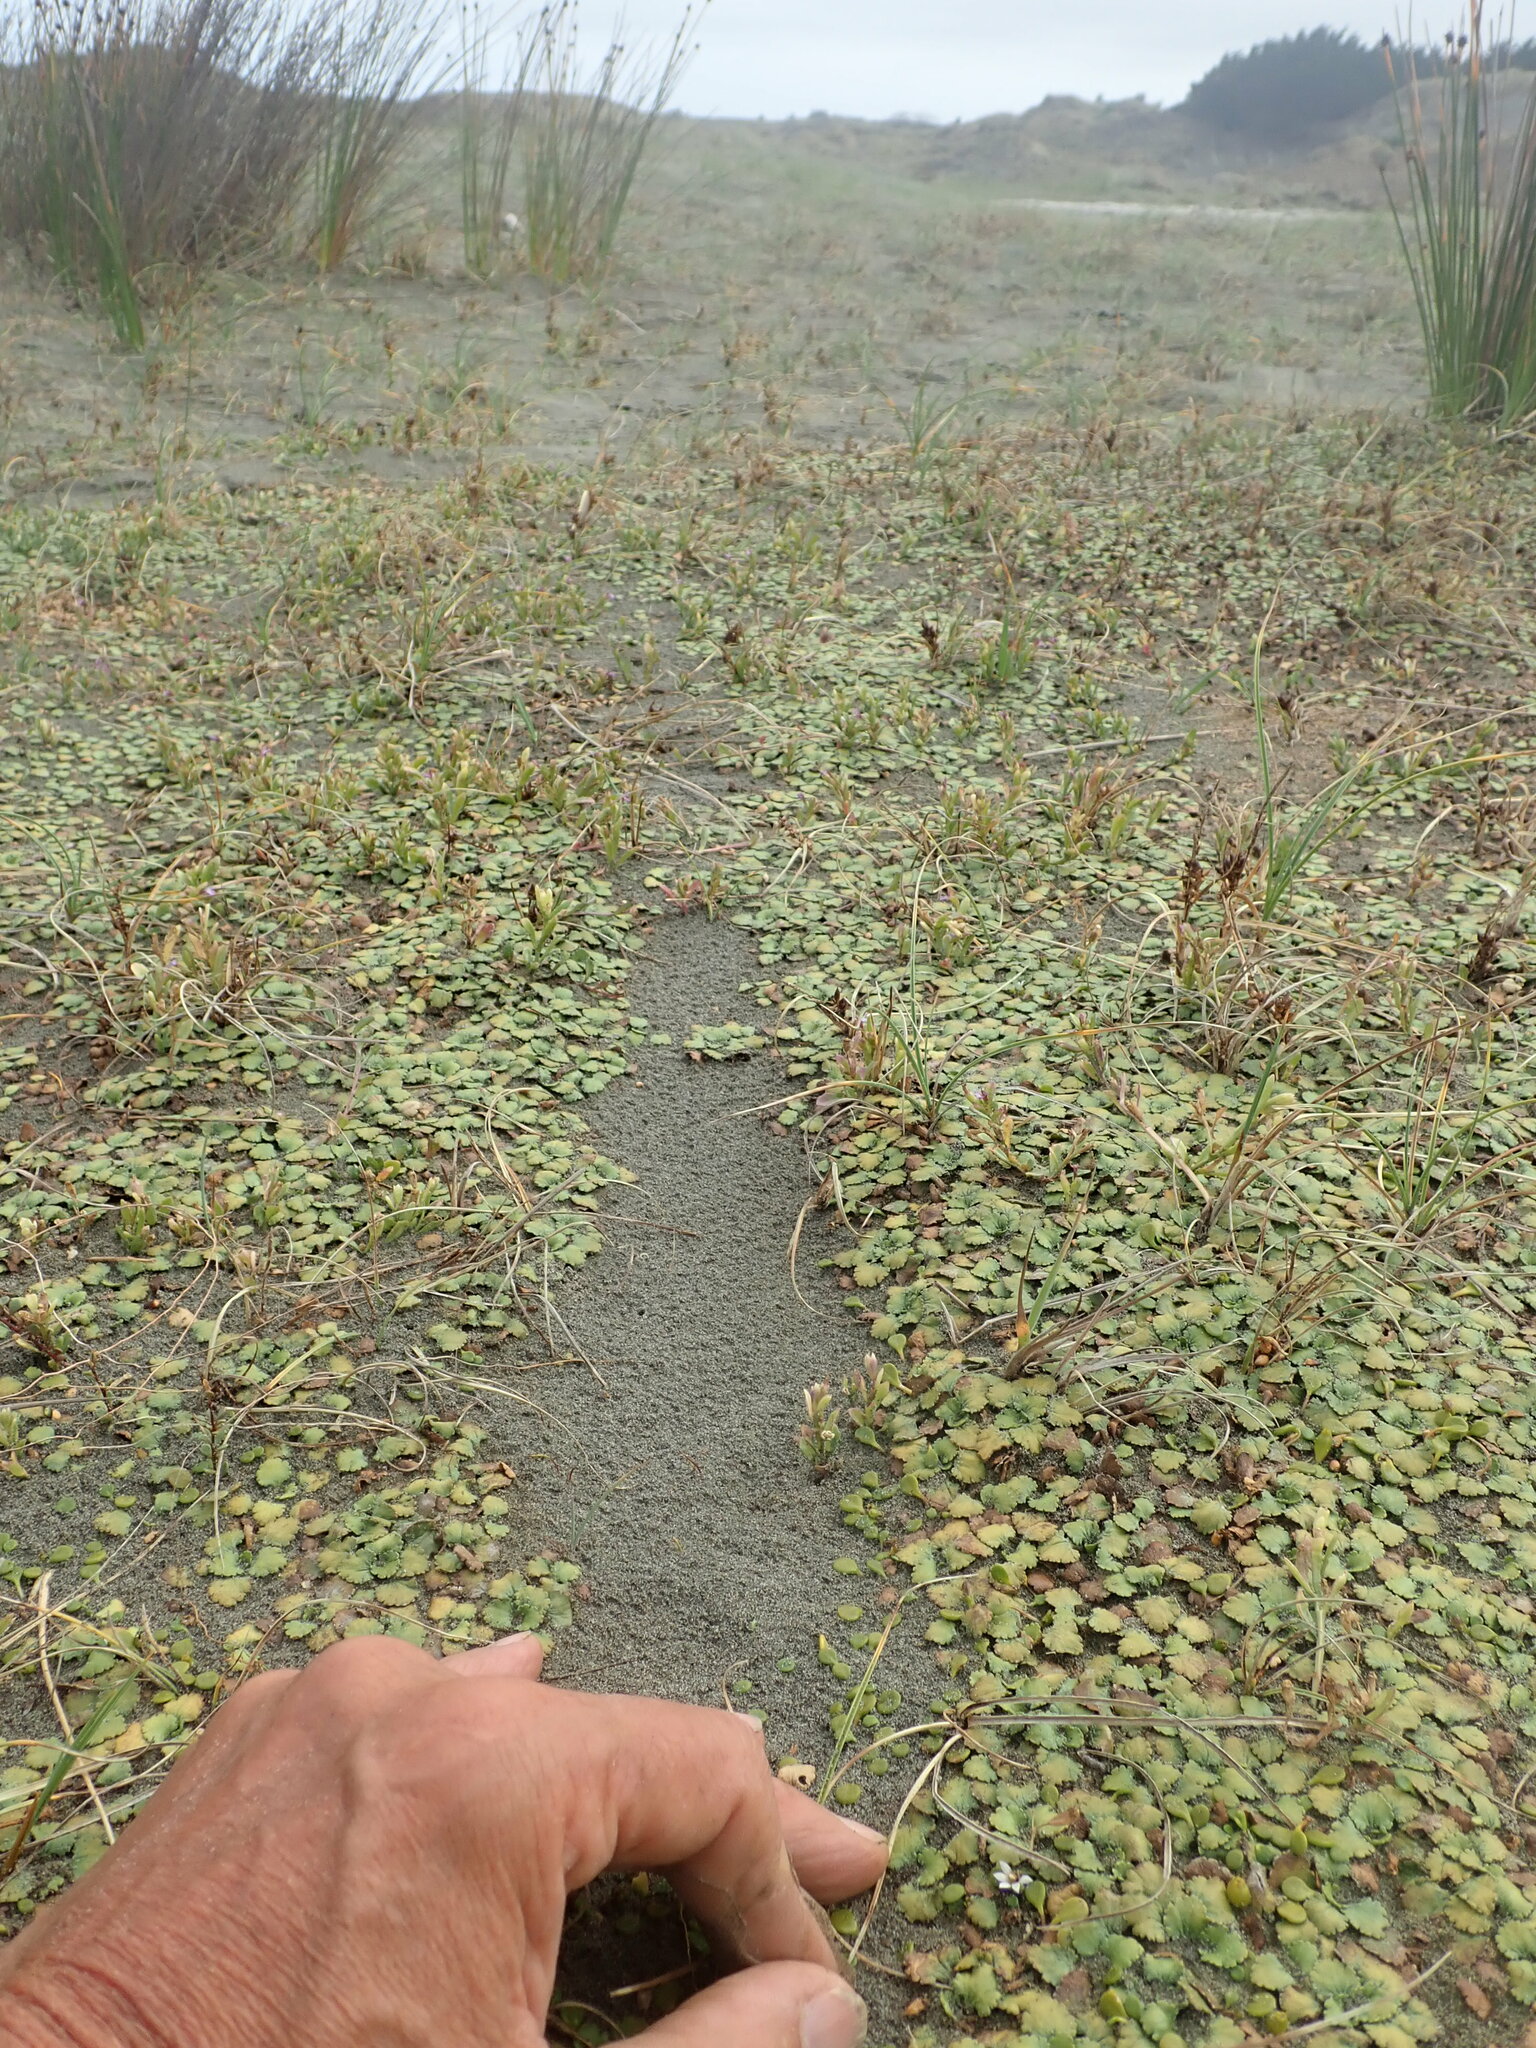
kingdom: Plantae
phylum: Tracheophyta
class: Magnoliopsida
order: Asterales
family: Goodeniaceae
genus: Goodenia
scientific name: Goodenia heenanii
